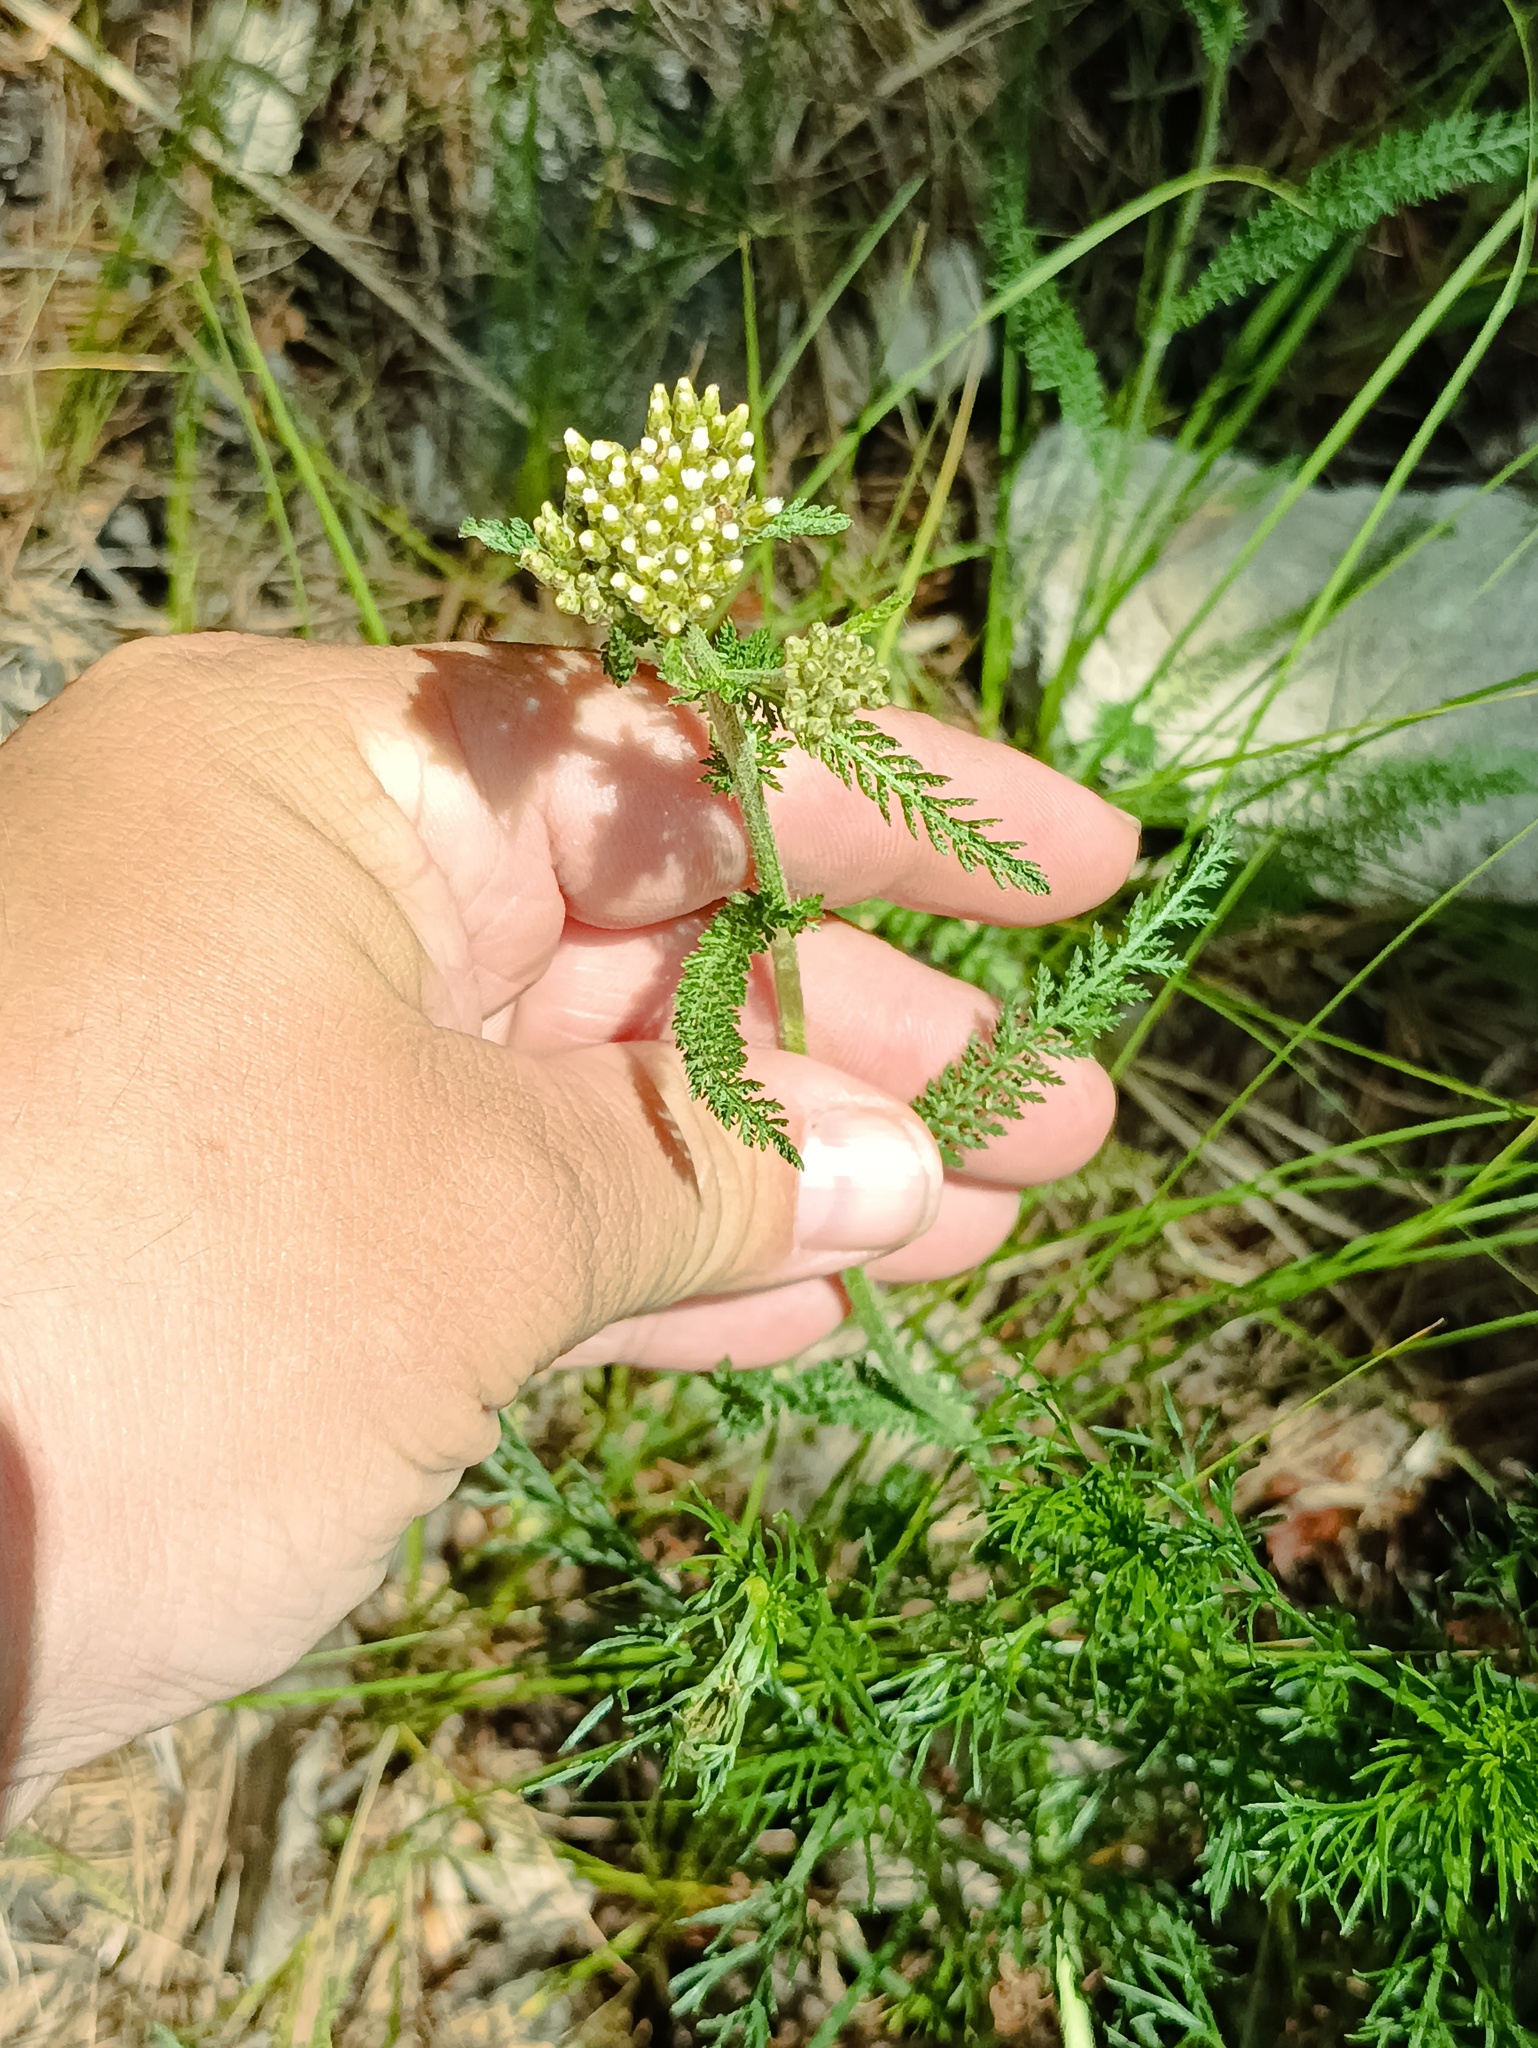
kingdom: Plantae
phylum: Tracheophyta
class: Magnoliopsida
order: Asterales
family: Asteraceae
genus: Achillea
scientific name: Achillea millefolium
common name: Yarrow
